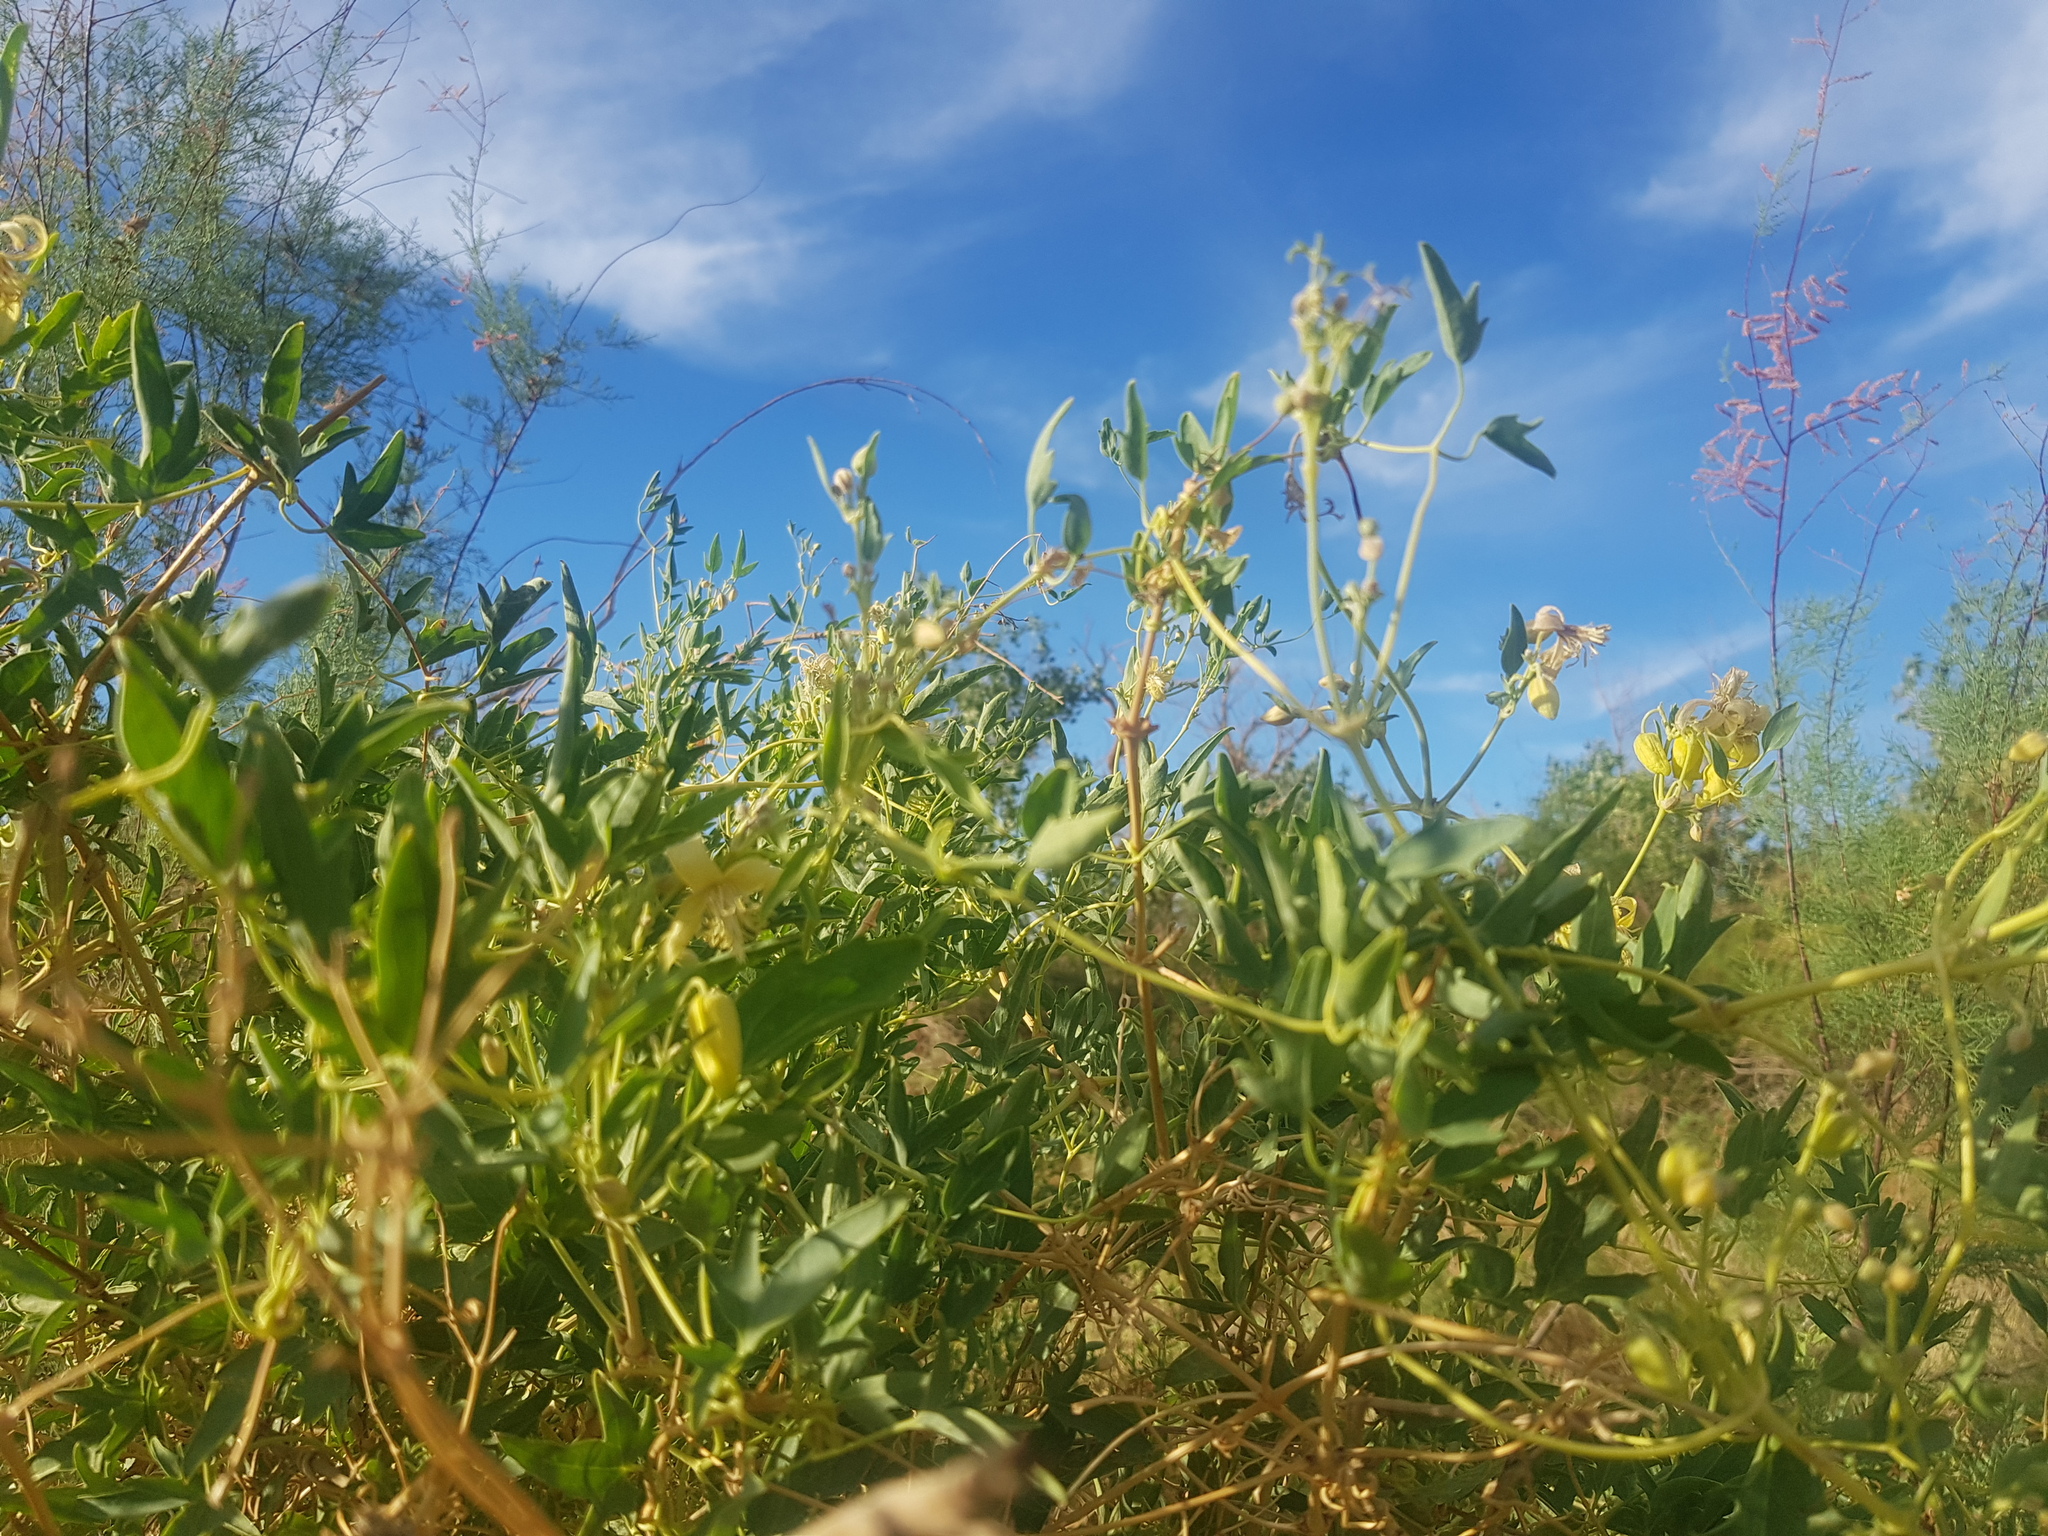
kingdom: Plantae
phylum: Tracheophyta
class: Magnoliopsida
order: Ranunculales
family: Ranunculaceae
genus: Clematis
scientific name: Clematis orientalis
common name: Oriental virgin's-bower
